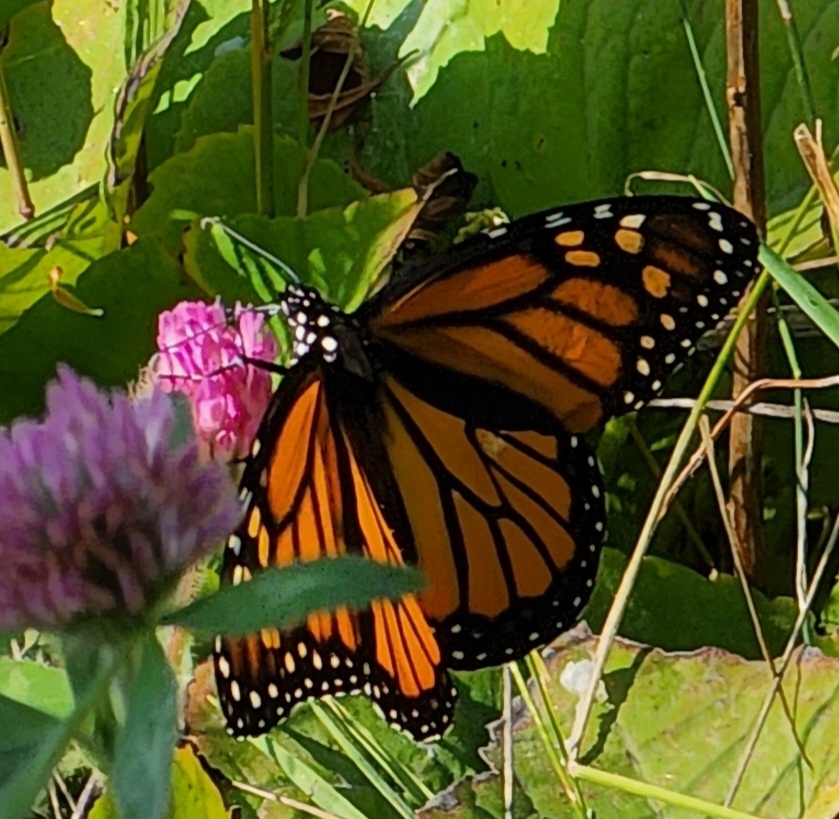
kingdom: Animalia
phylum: Arthropoda
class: Insecta
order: Lepidoptera
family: Nymphalidae
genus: Danaus
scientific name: Danaus plexippus
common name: Monarch
